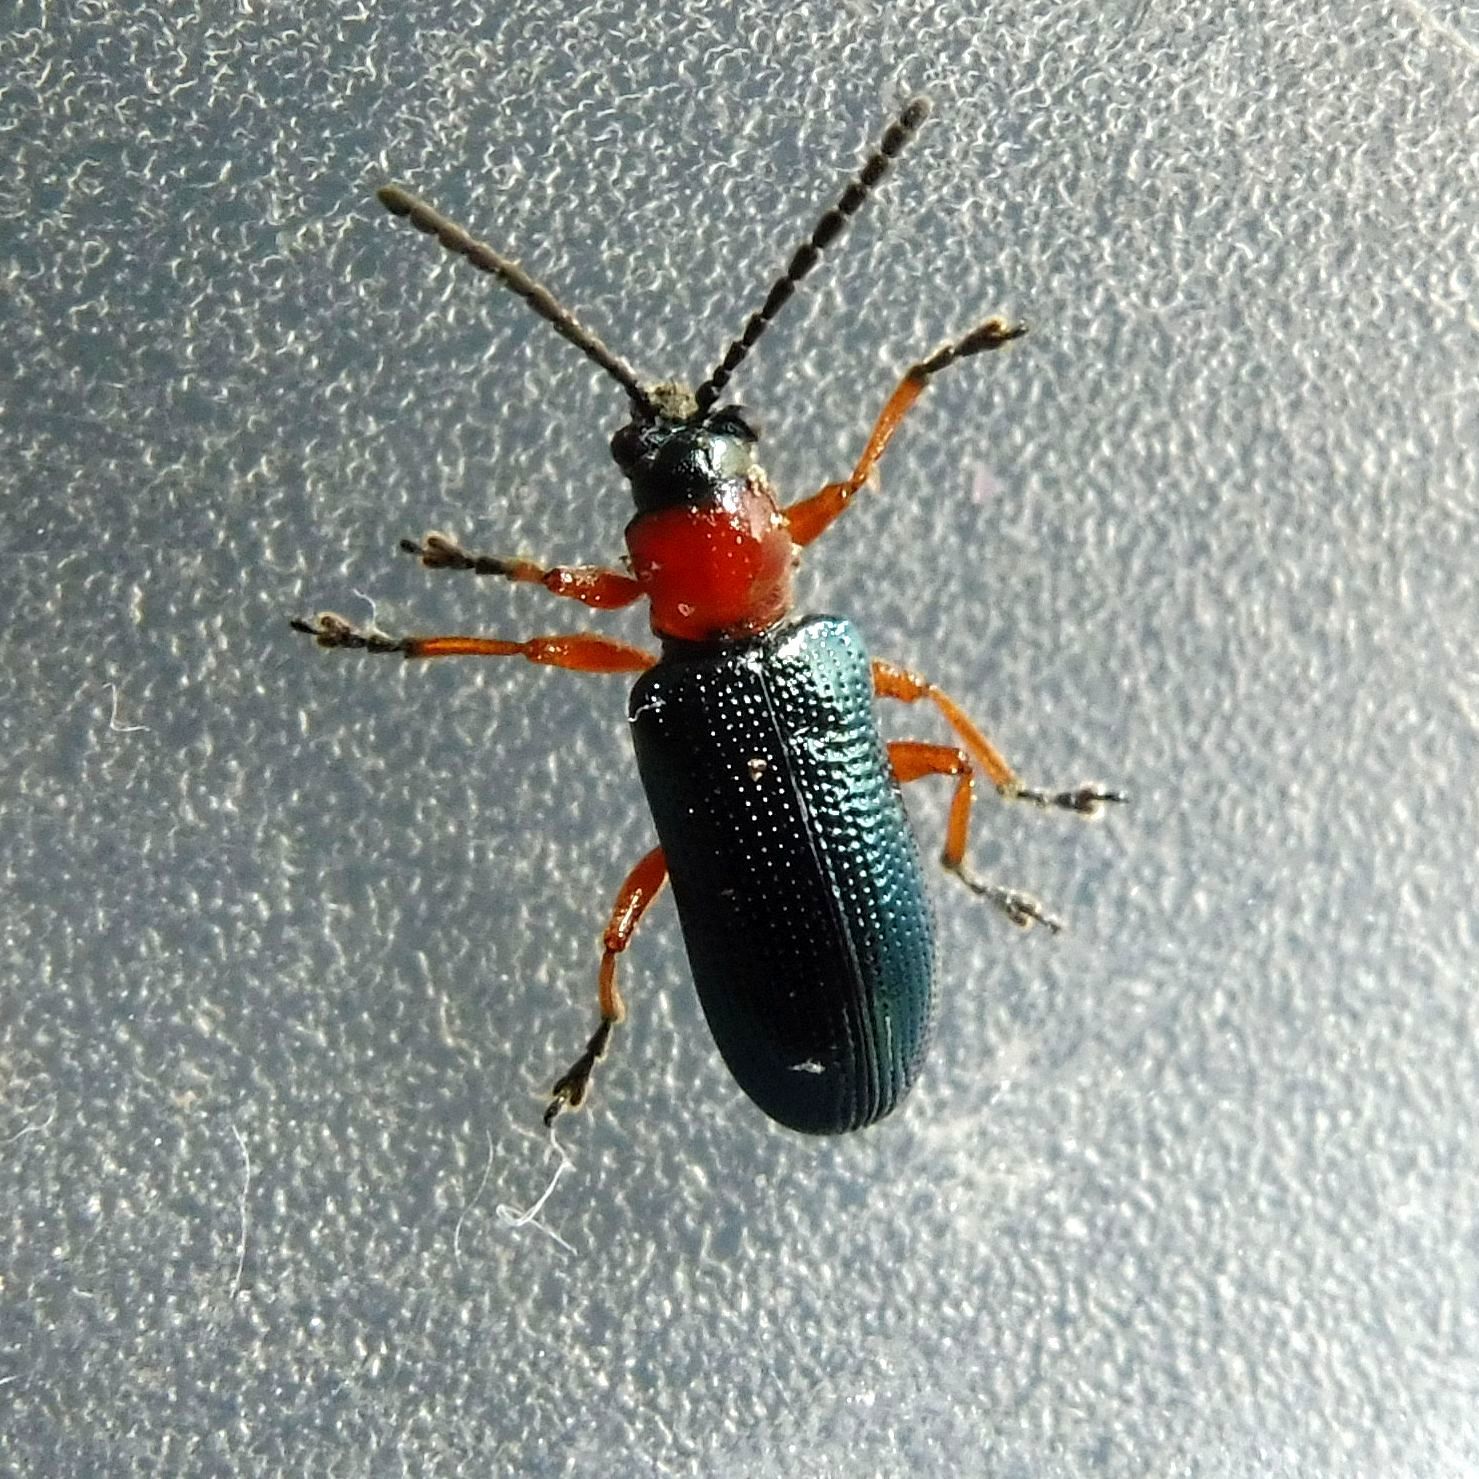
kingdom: Animalia
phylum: Arthropoda
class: Insecta
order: Coleoptera
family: Chrysomelidae
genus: Oulema
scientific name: Oulema
